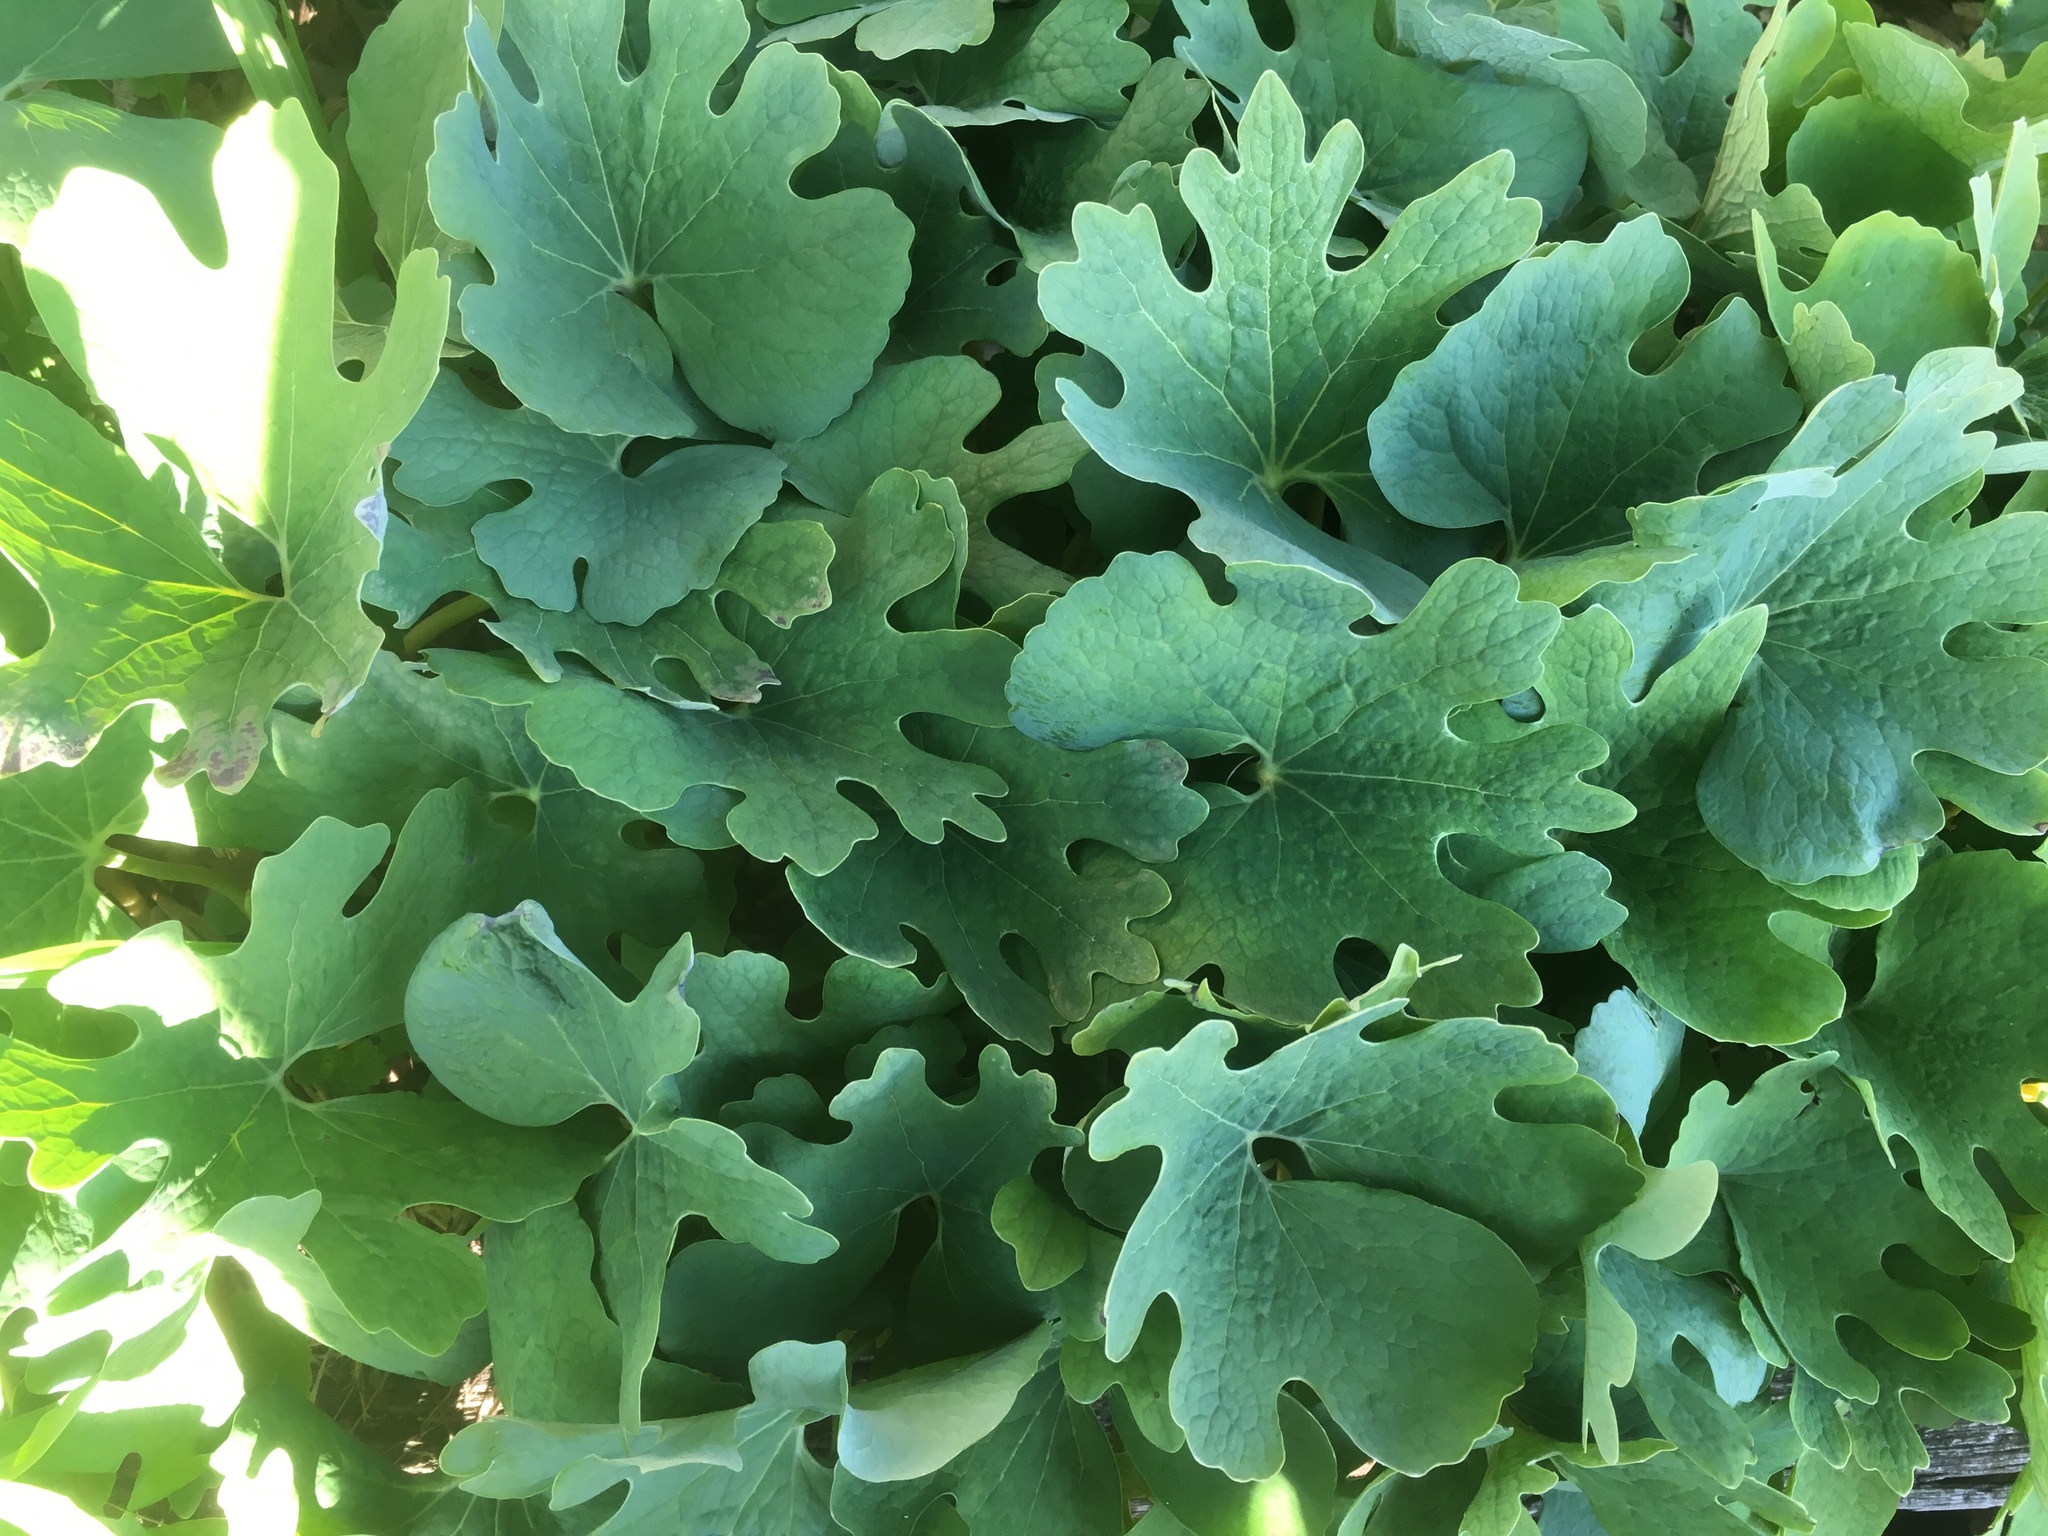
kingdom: Plantae
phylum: Tracheophyta
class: Magnoliopsida
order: Ranunculales
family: Papaveraceae
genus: Sanguinaria
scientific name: Sanguinaria canadensis
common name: Bloodroot
